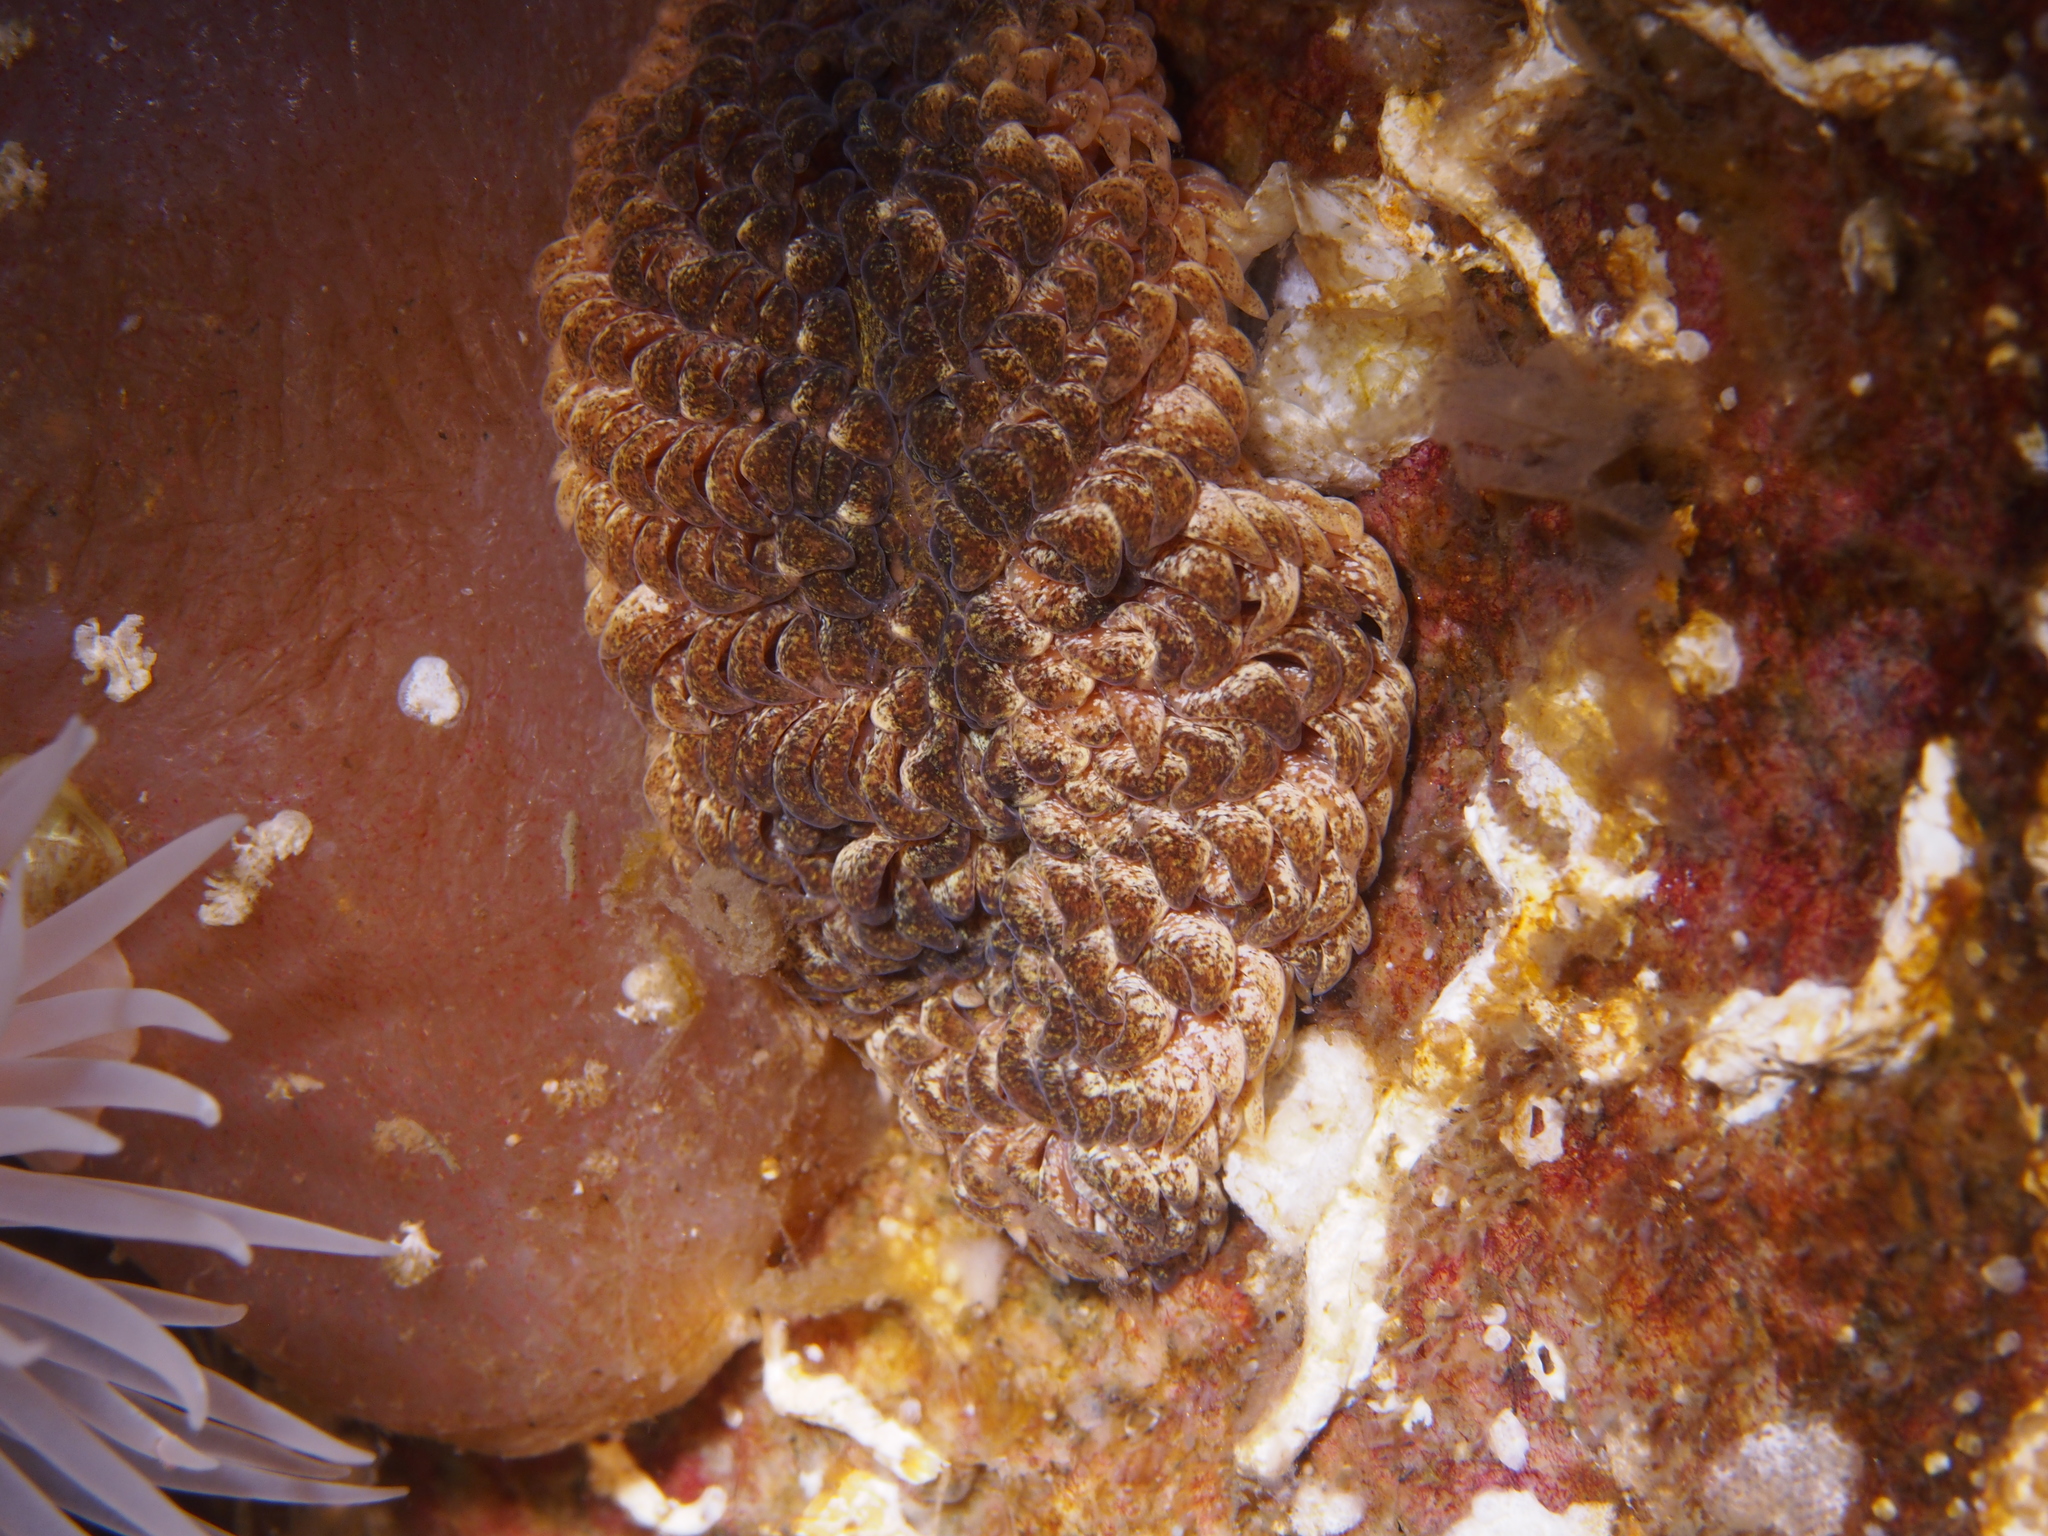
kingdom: Animalia
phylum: Mollusca
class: Gastropoda
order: Nudibranchia
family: Aeolidiidae
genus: Aeolidia
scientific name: Aeolidia papillosa
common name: Common grey sea slug
